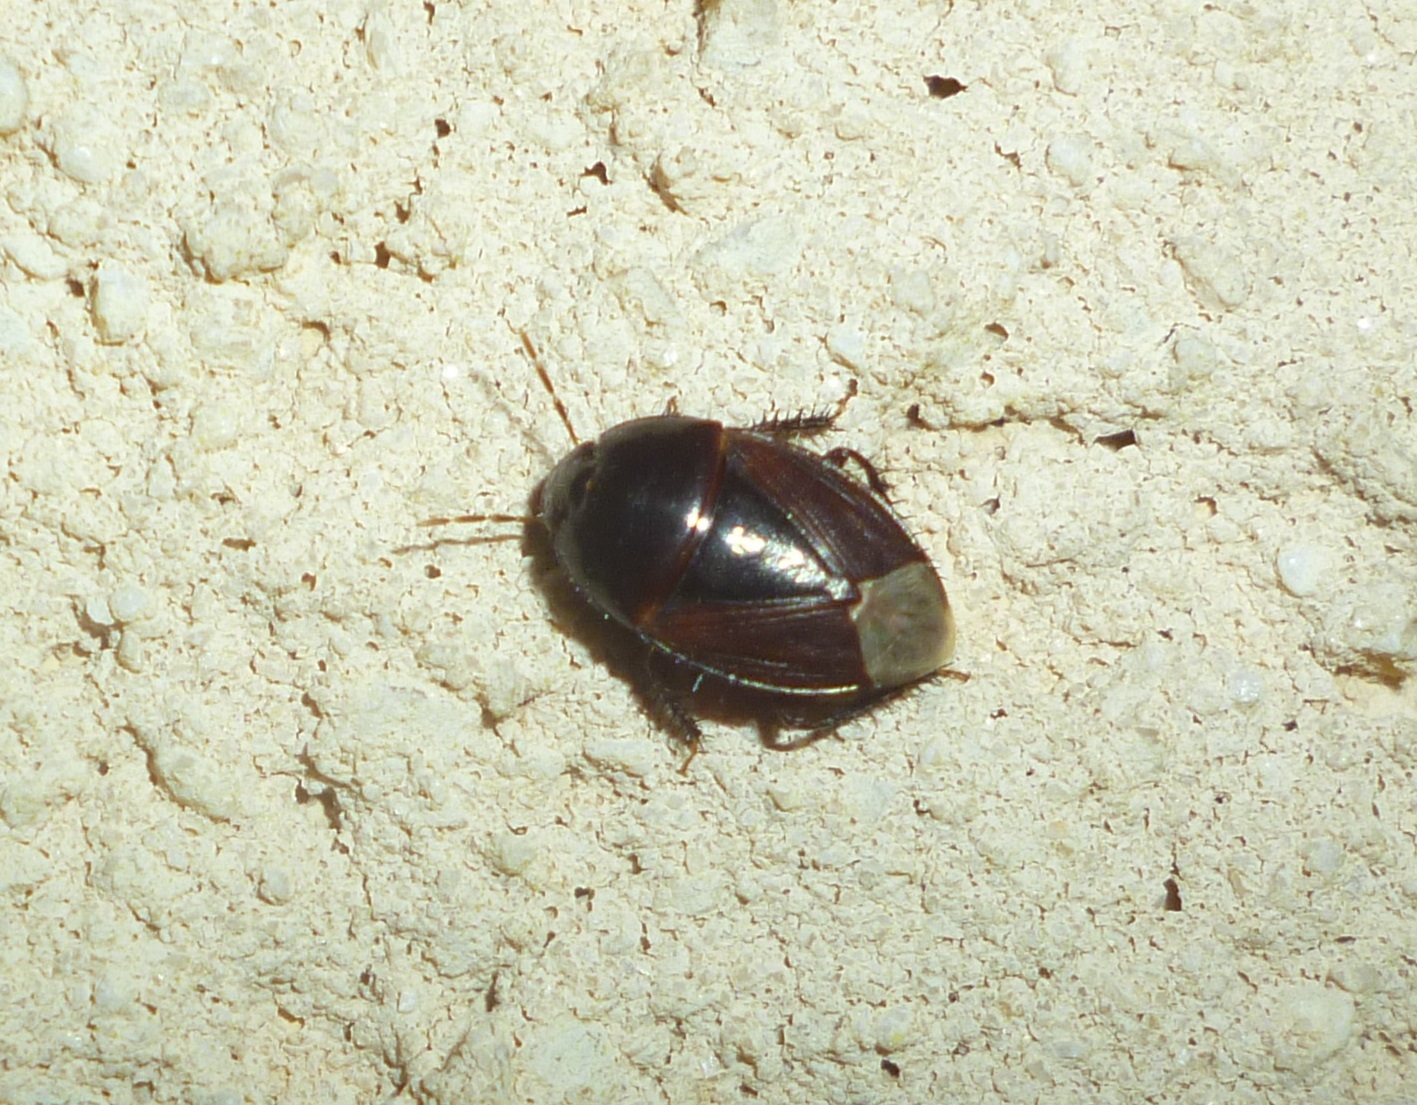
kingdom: Animalia
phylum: Arthropoda
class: Insecta
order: Hemiptera
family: Cydnidae
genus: Macroscytus
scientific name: Macroscytus brunneus
